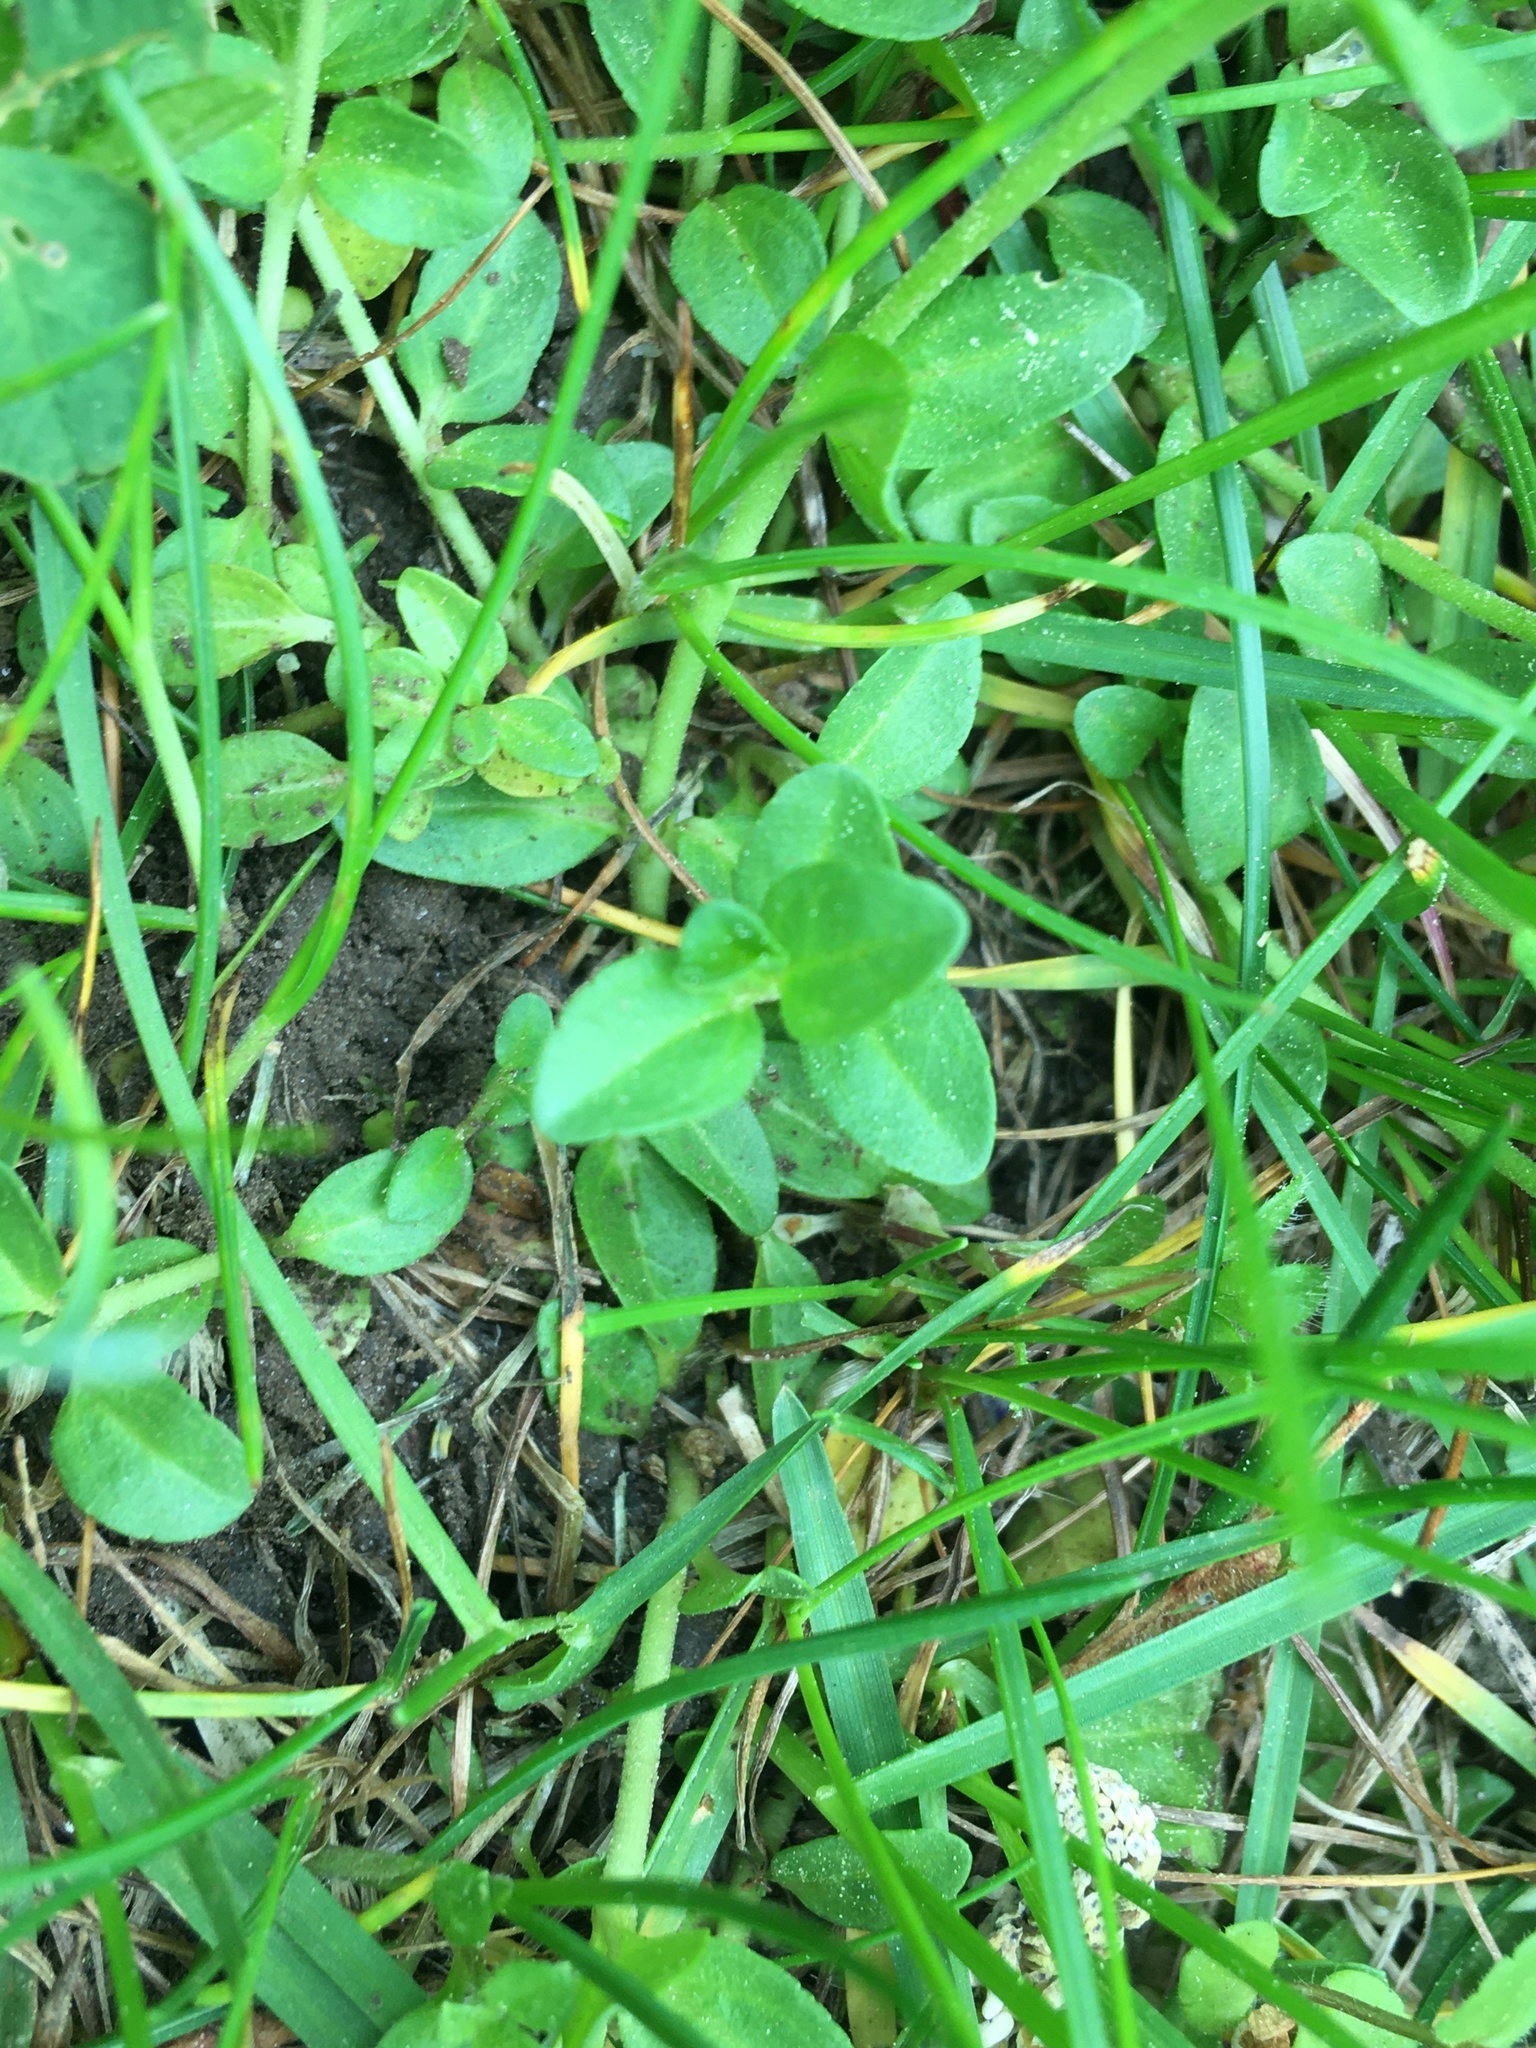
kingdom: Plantae
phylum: Tracheophyta
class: Magnoliopsida
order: Lamiales
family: Plantaginaceae
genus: Veronica
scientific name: Veronica serpyllifolia
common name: Thyme-leaved speedwell
